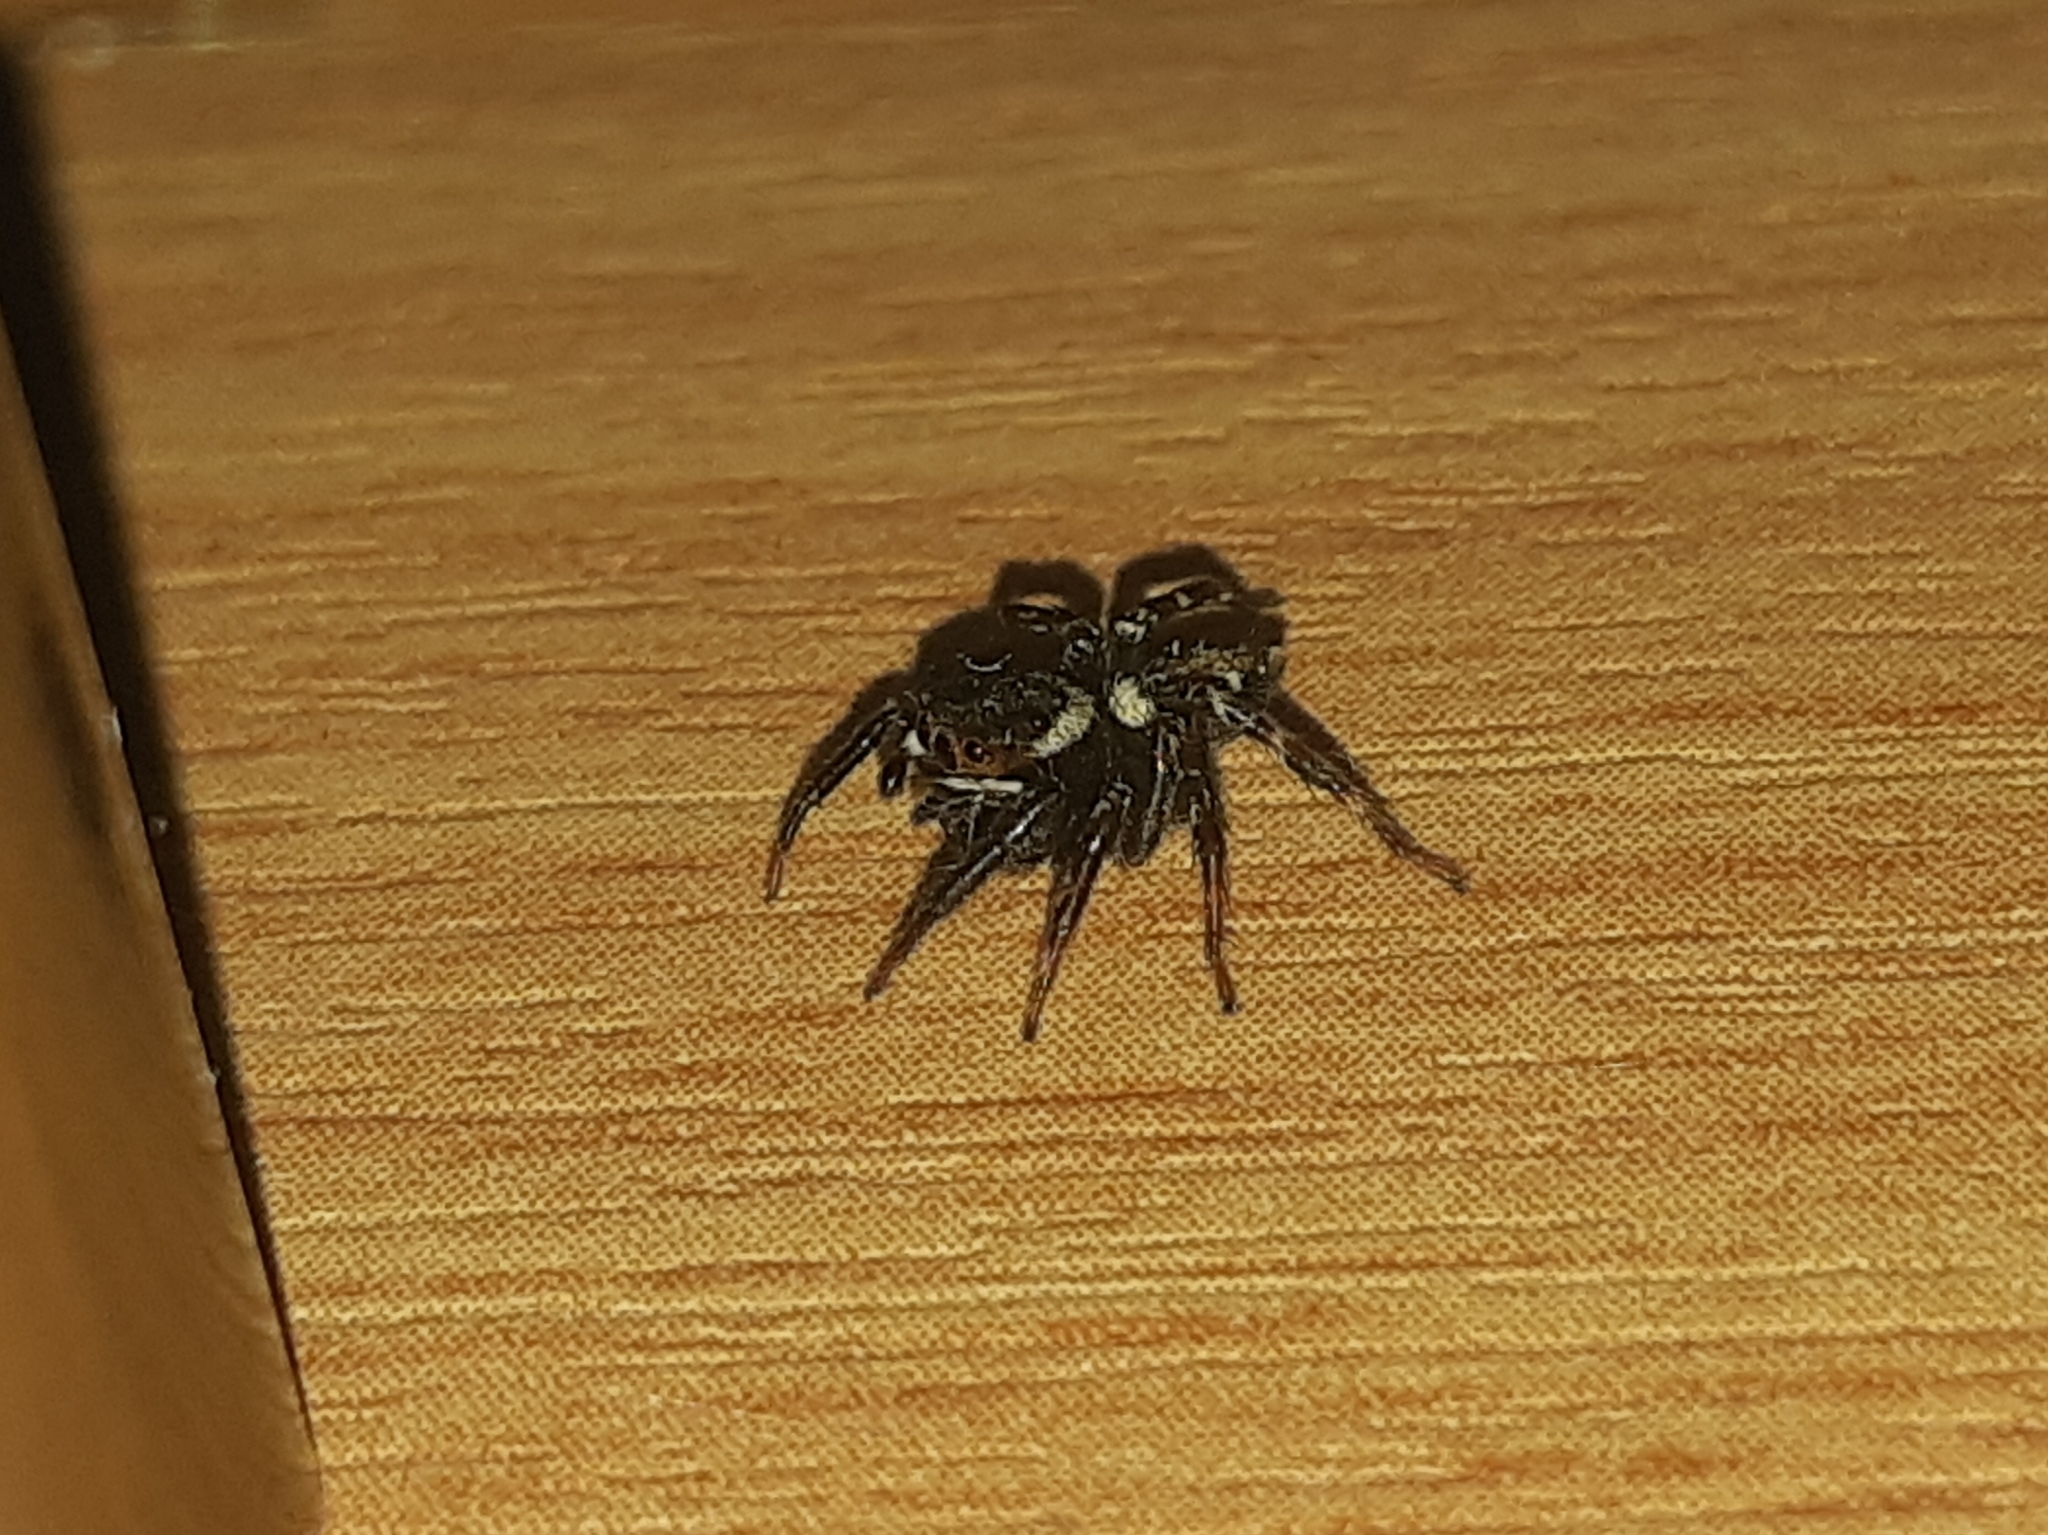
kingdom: Animalia
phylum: Arthropoda
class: Arachnida
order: Araneae
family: Salticidae
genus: Hasarius
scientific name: Hasarius adansoni
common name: Jumping spider
